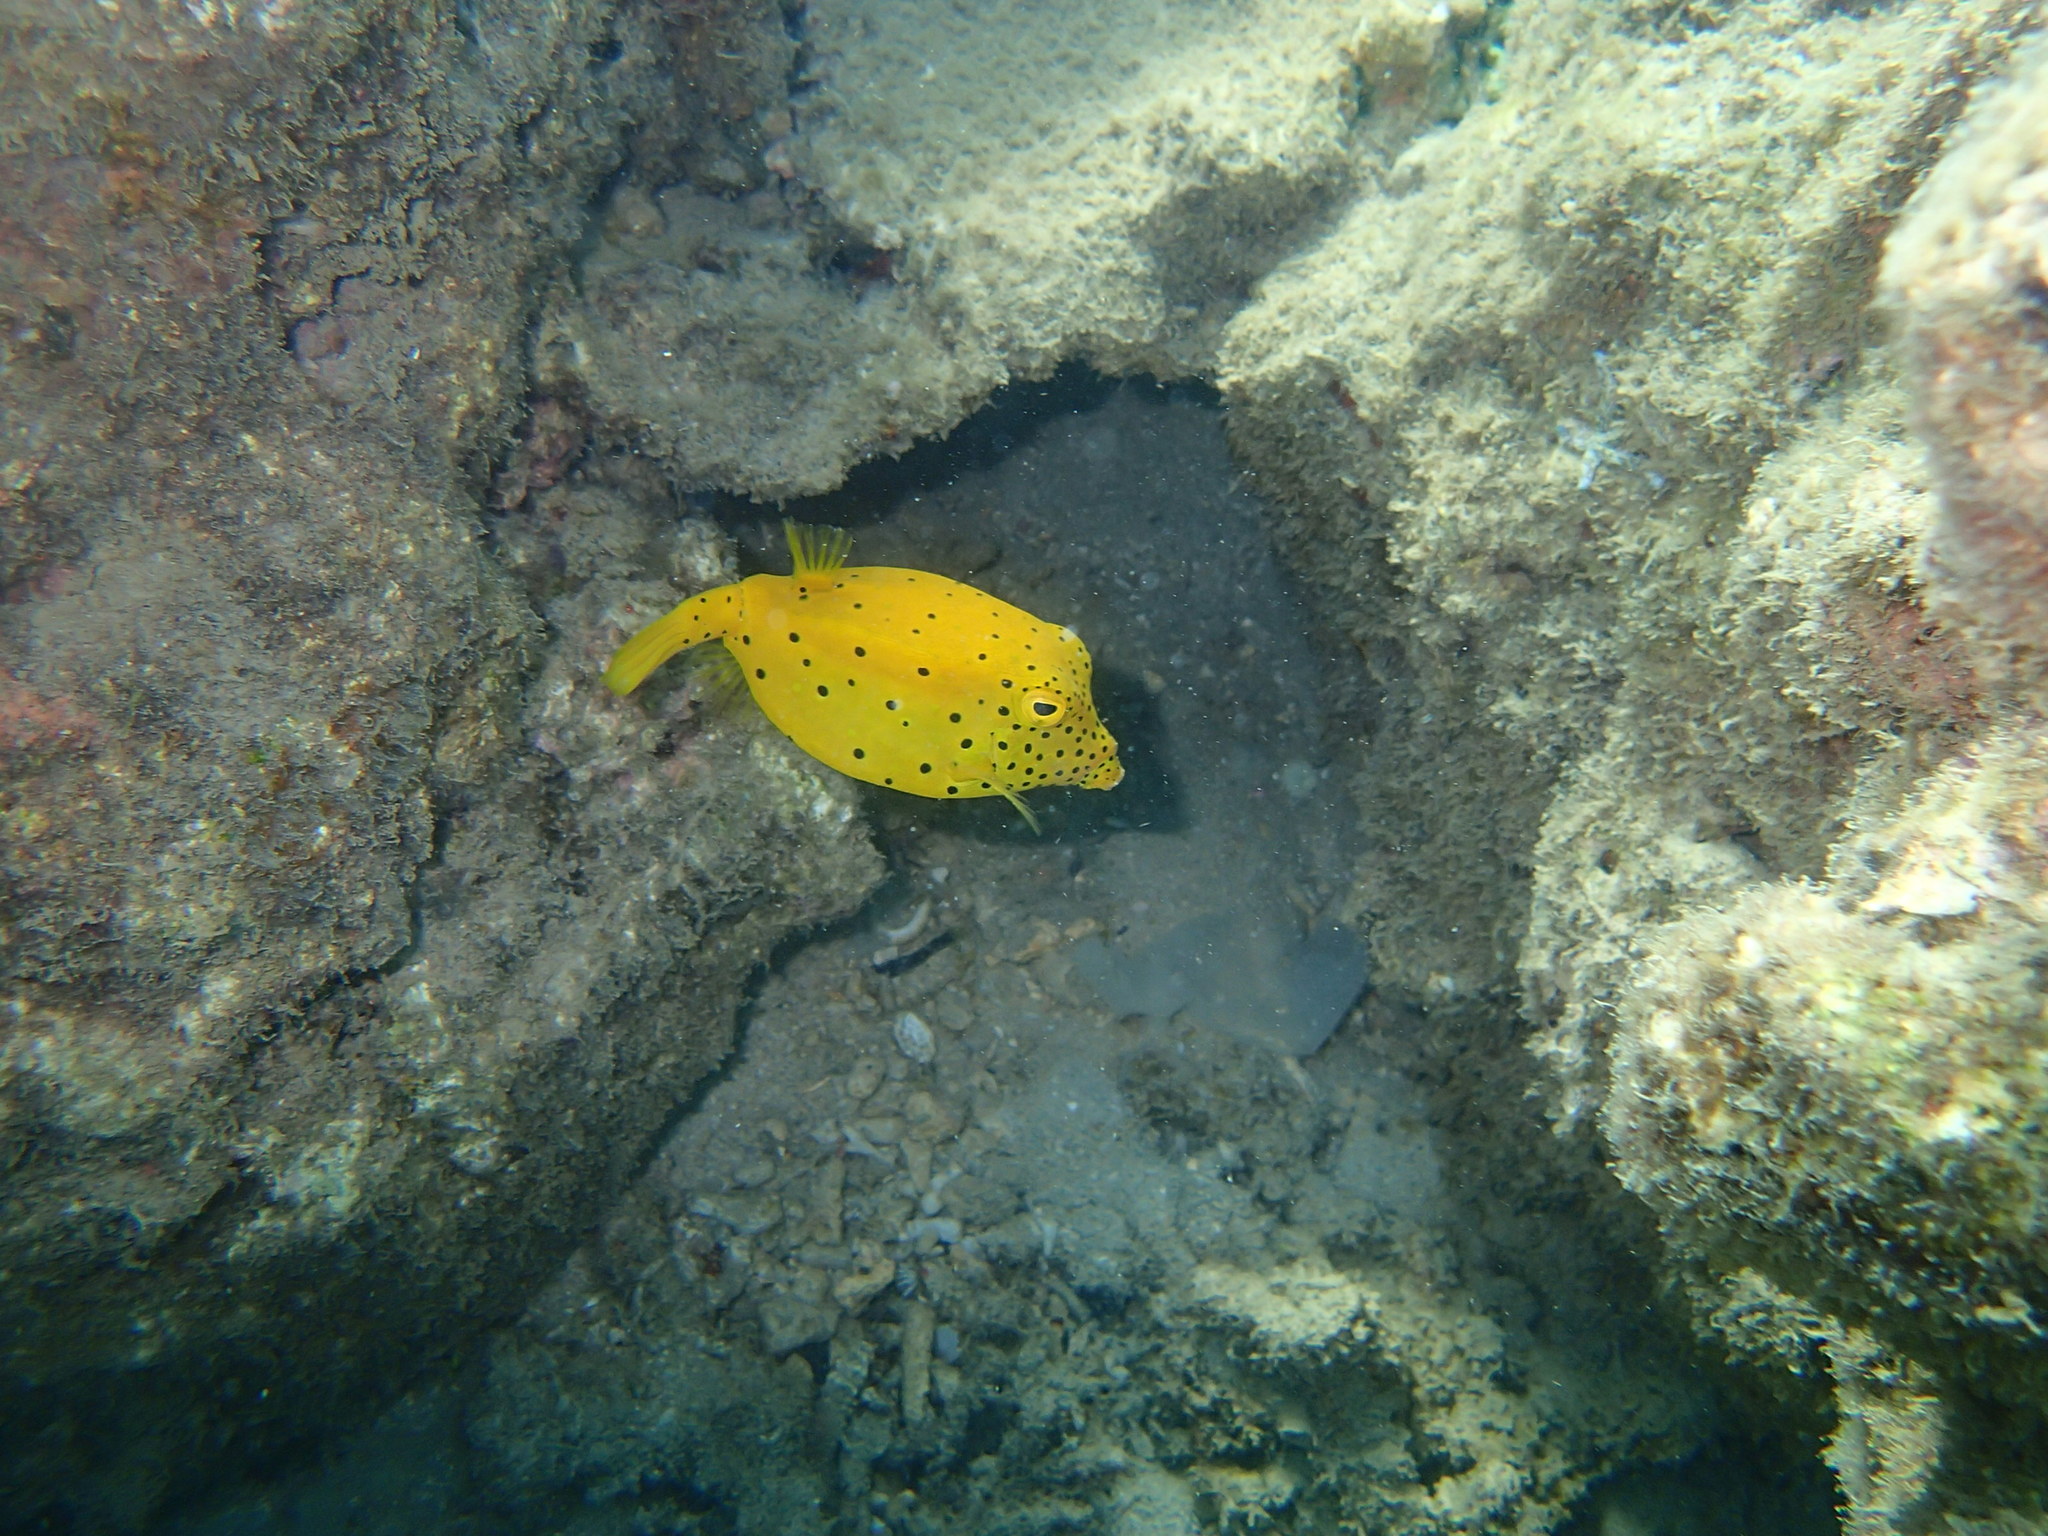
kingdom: Animalia
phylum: Chordata
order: Tetraodontiformes
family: Ostraciidae
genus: Ostracion
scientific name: Ostracion cubicus
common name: Cube trunkfish
